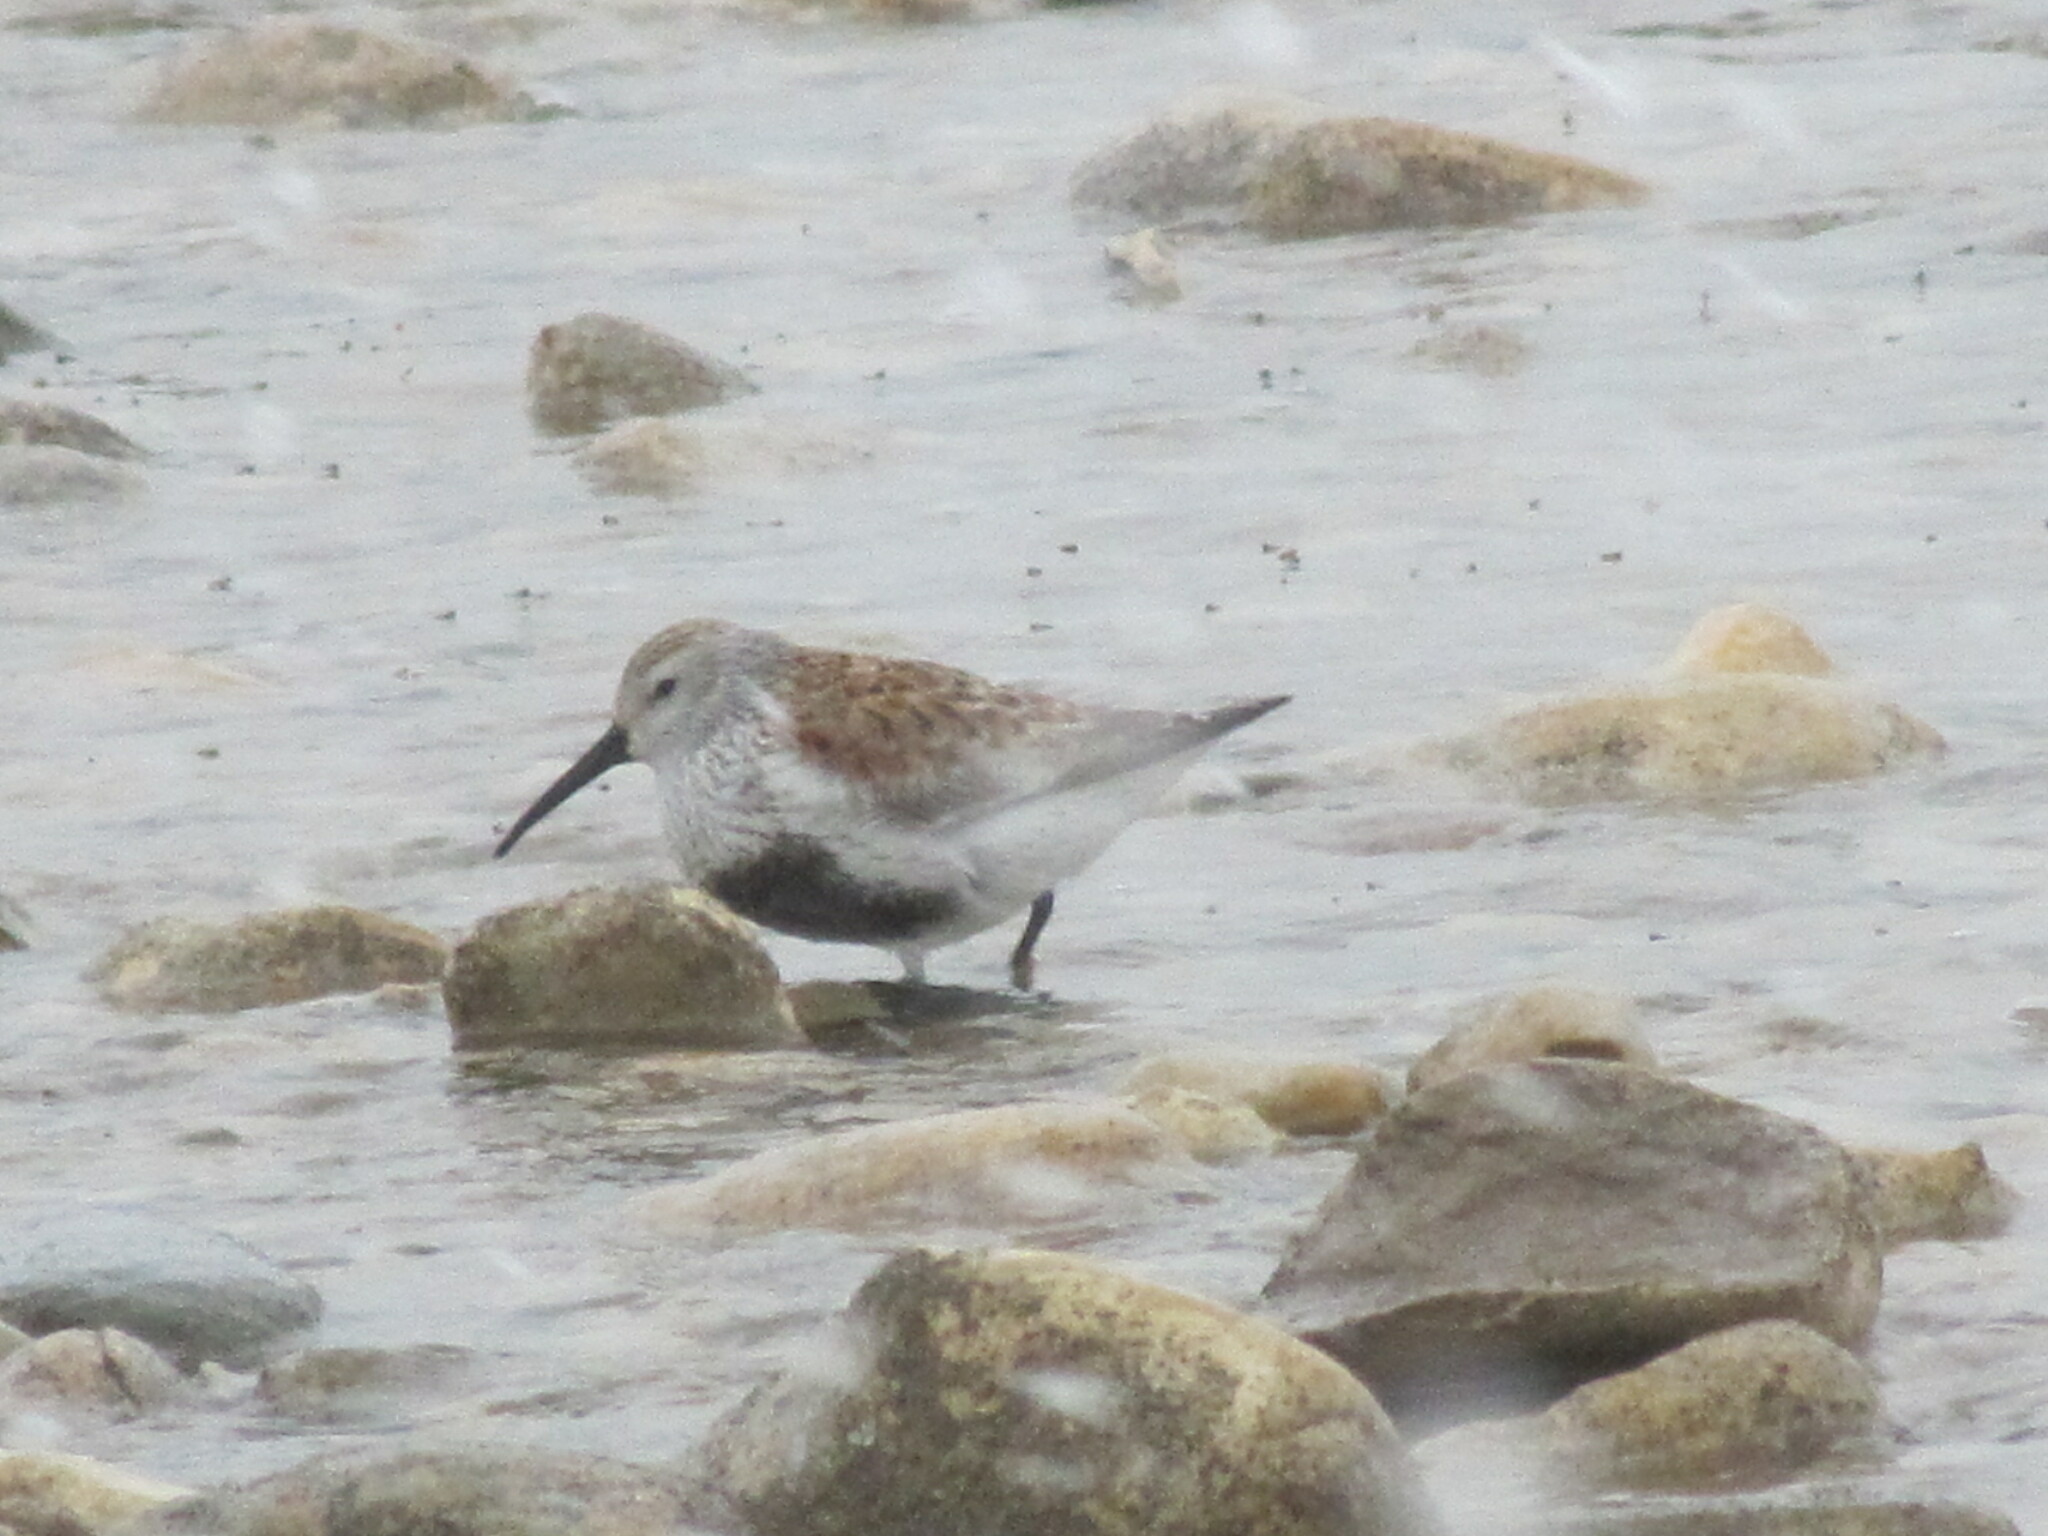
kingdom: Animalia
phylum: Chordata
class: Aves
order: Charadriiformes
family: Scolopacidae
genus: Calidris
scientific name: Calidris alpina
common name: Dunlin
